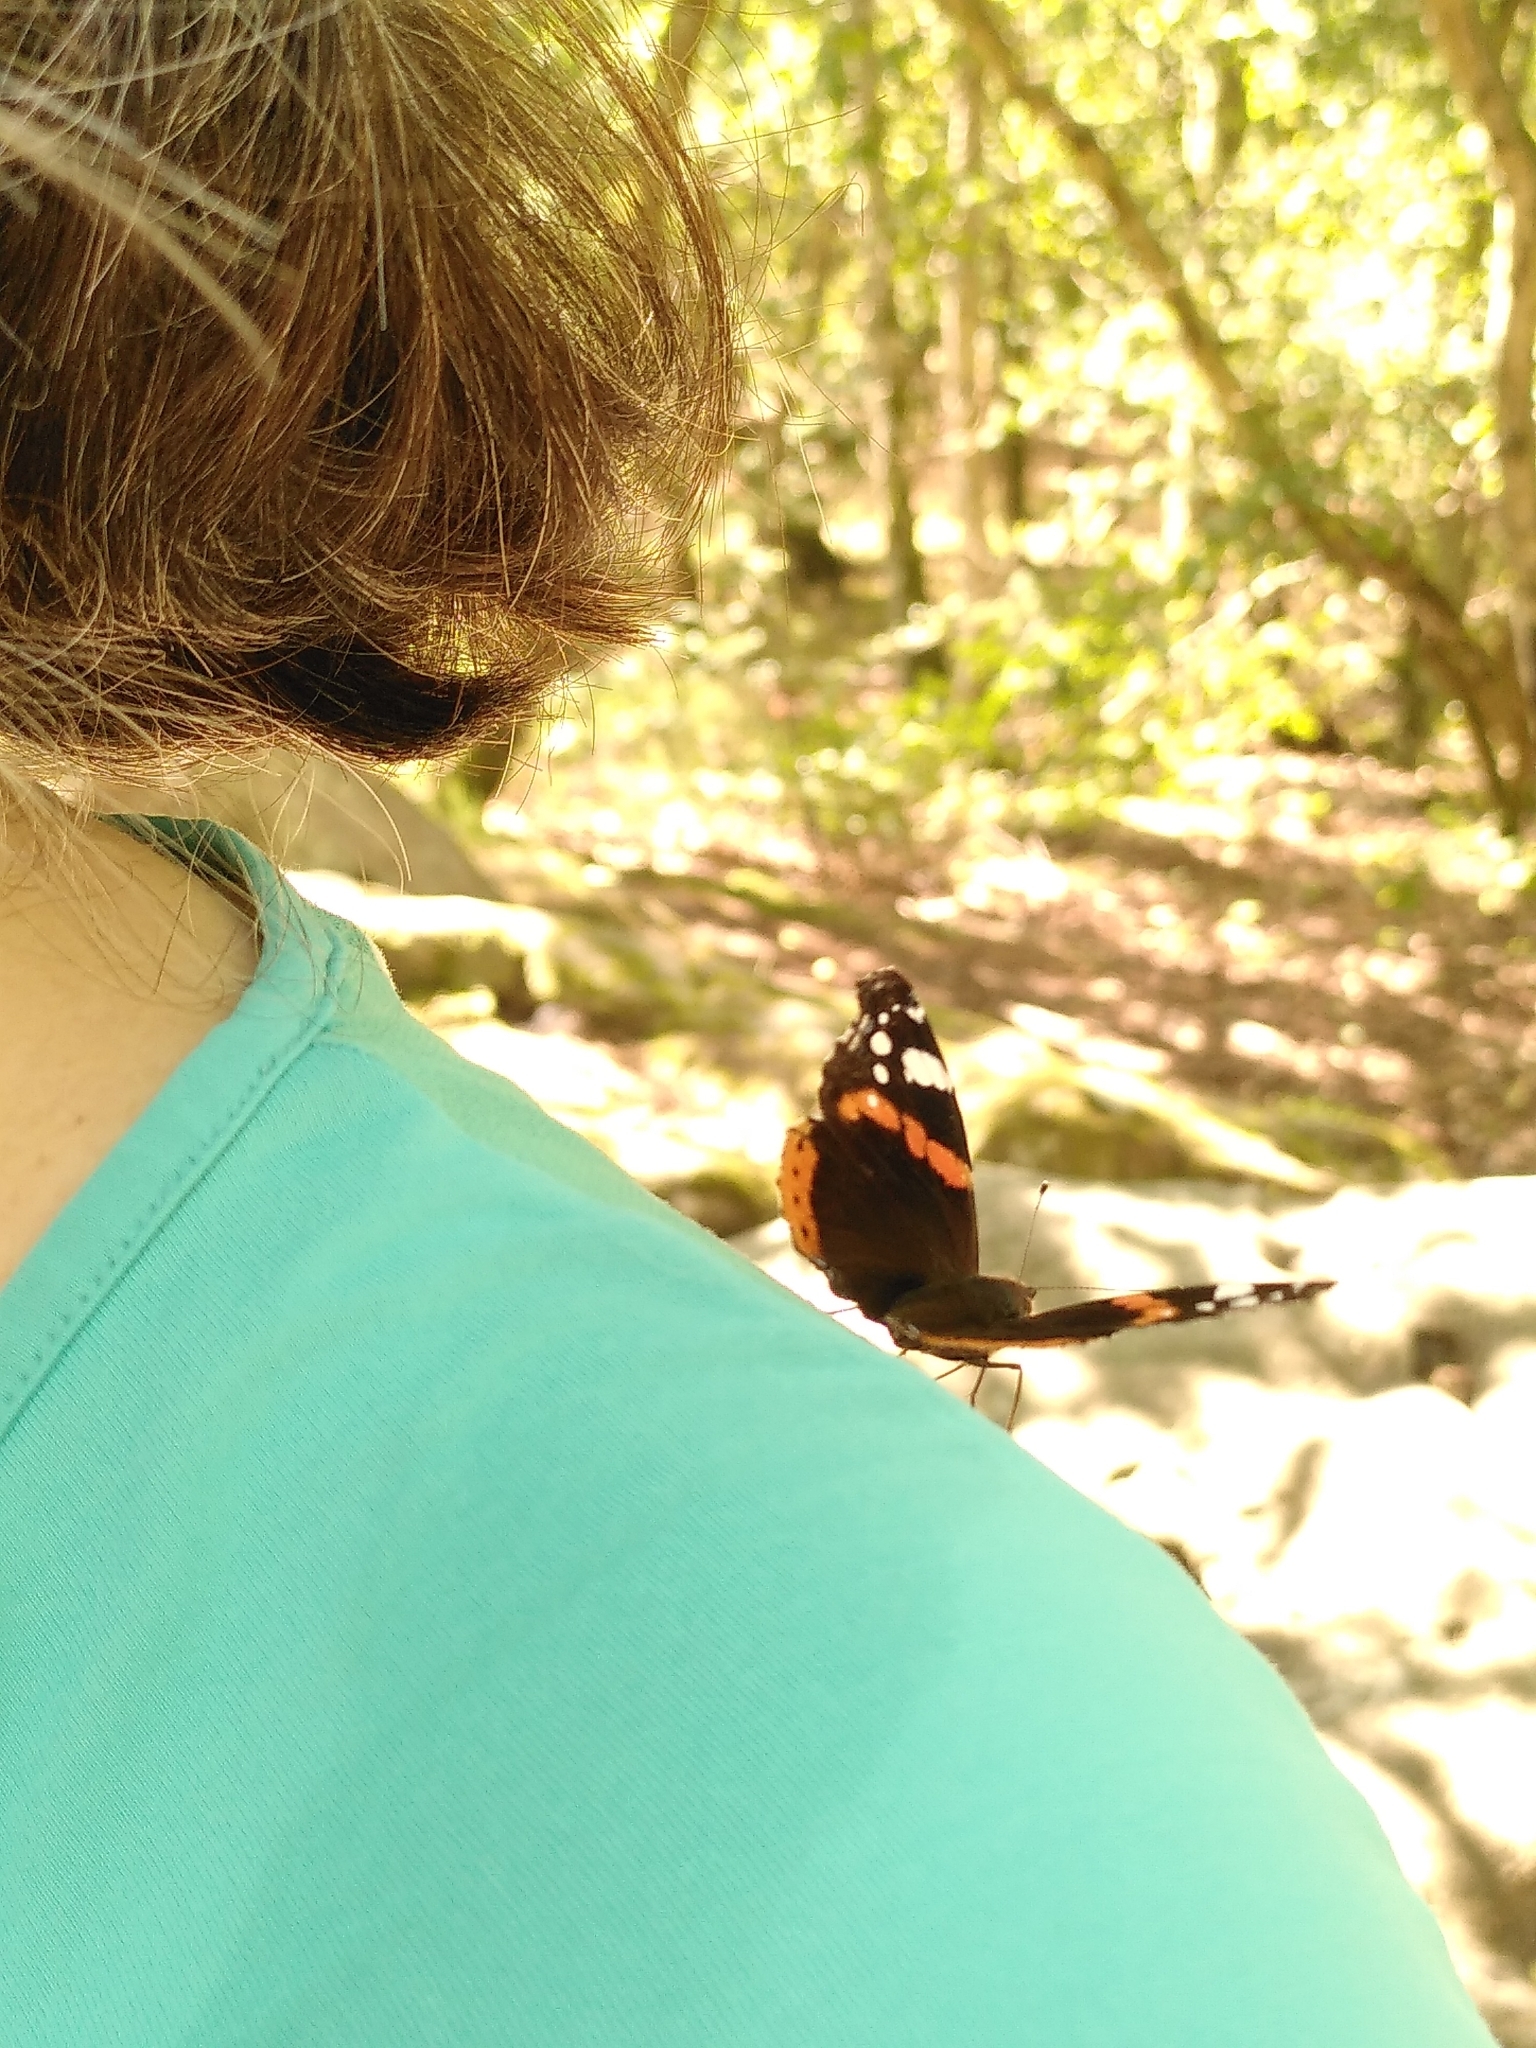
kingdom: Animalia
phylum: Arthropoda
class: Insecta
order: Lepidoptera
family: Nymphalidae
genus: Vanessa
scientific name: Vanessa atalanta
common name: Red admiral
